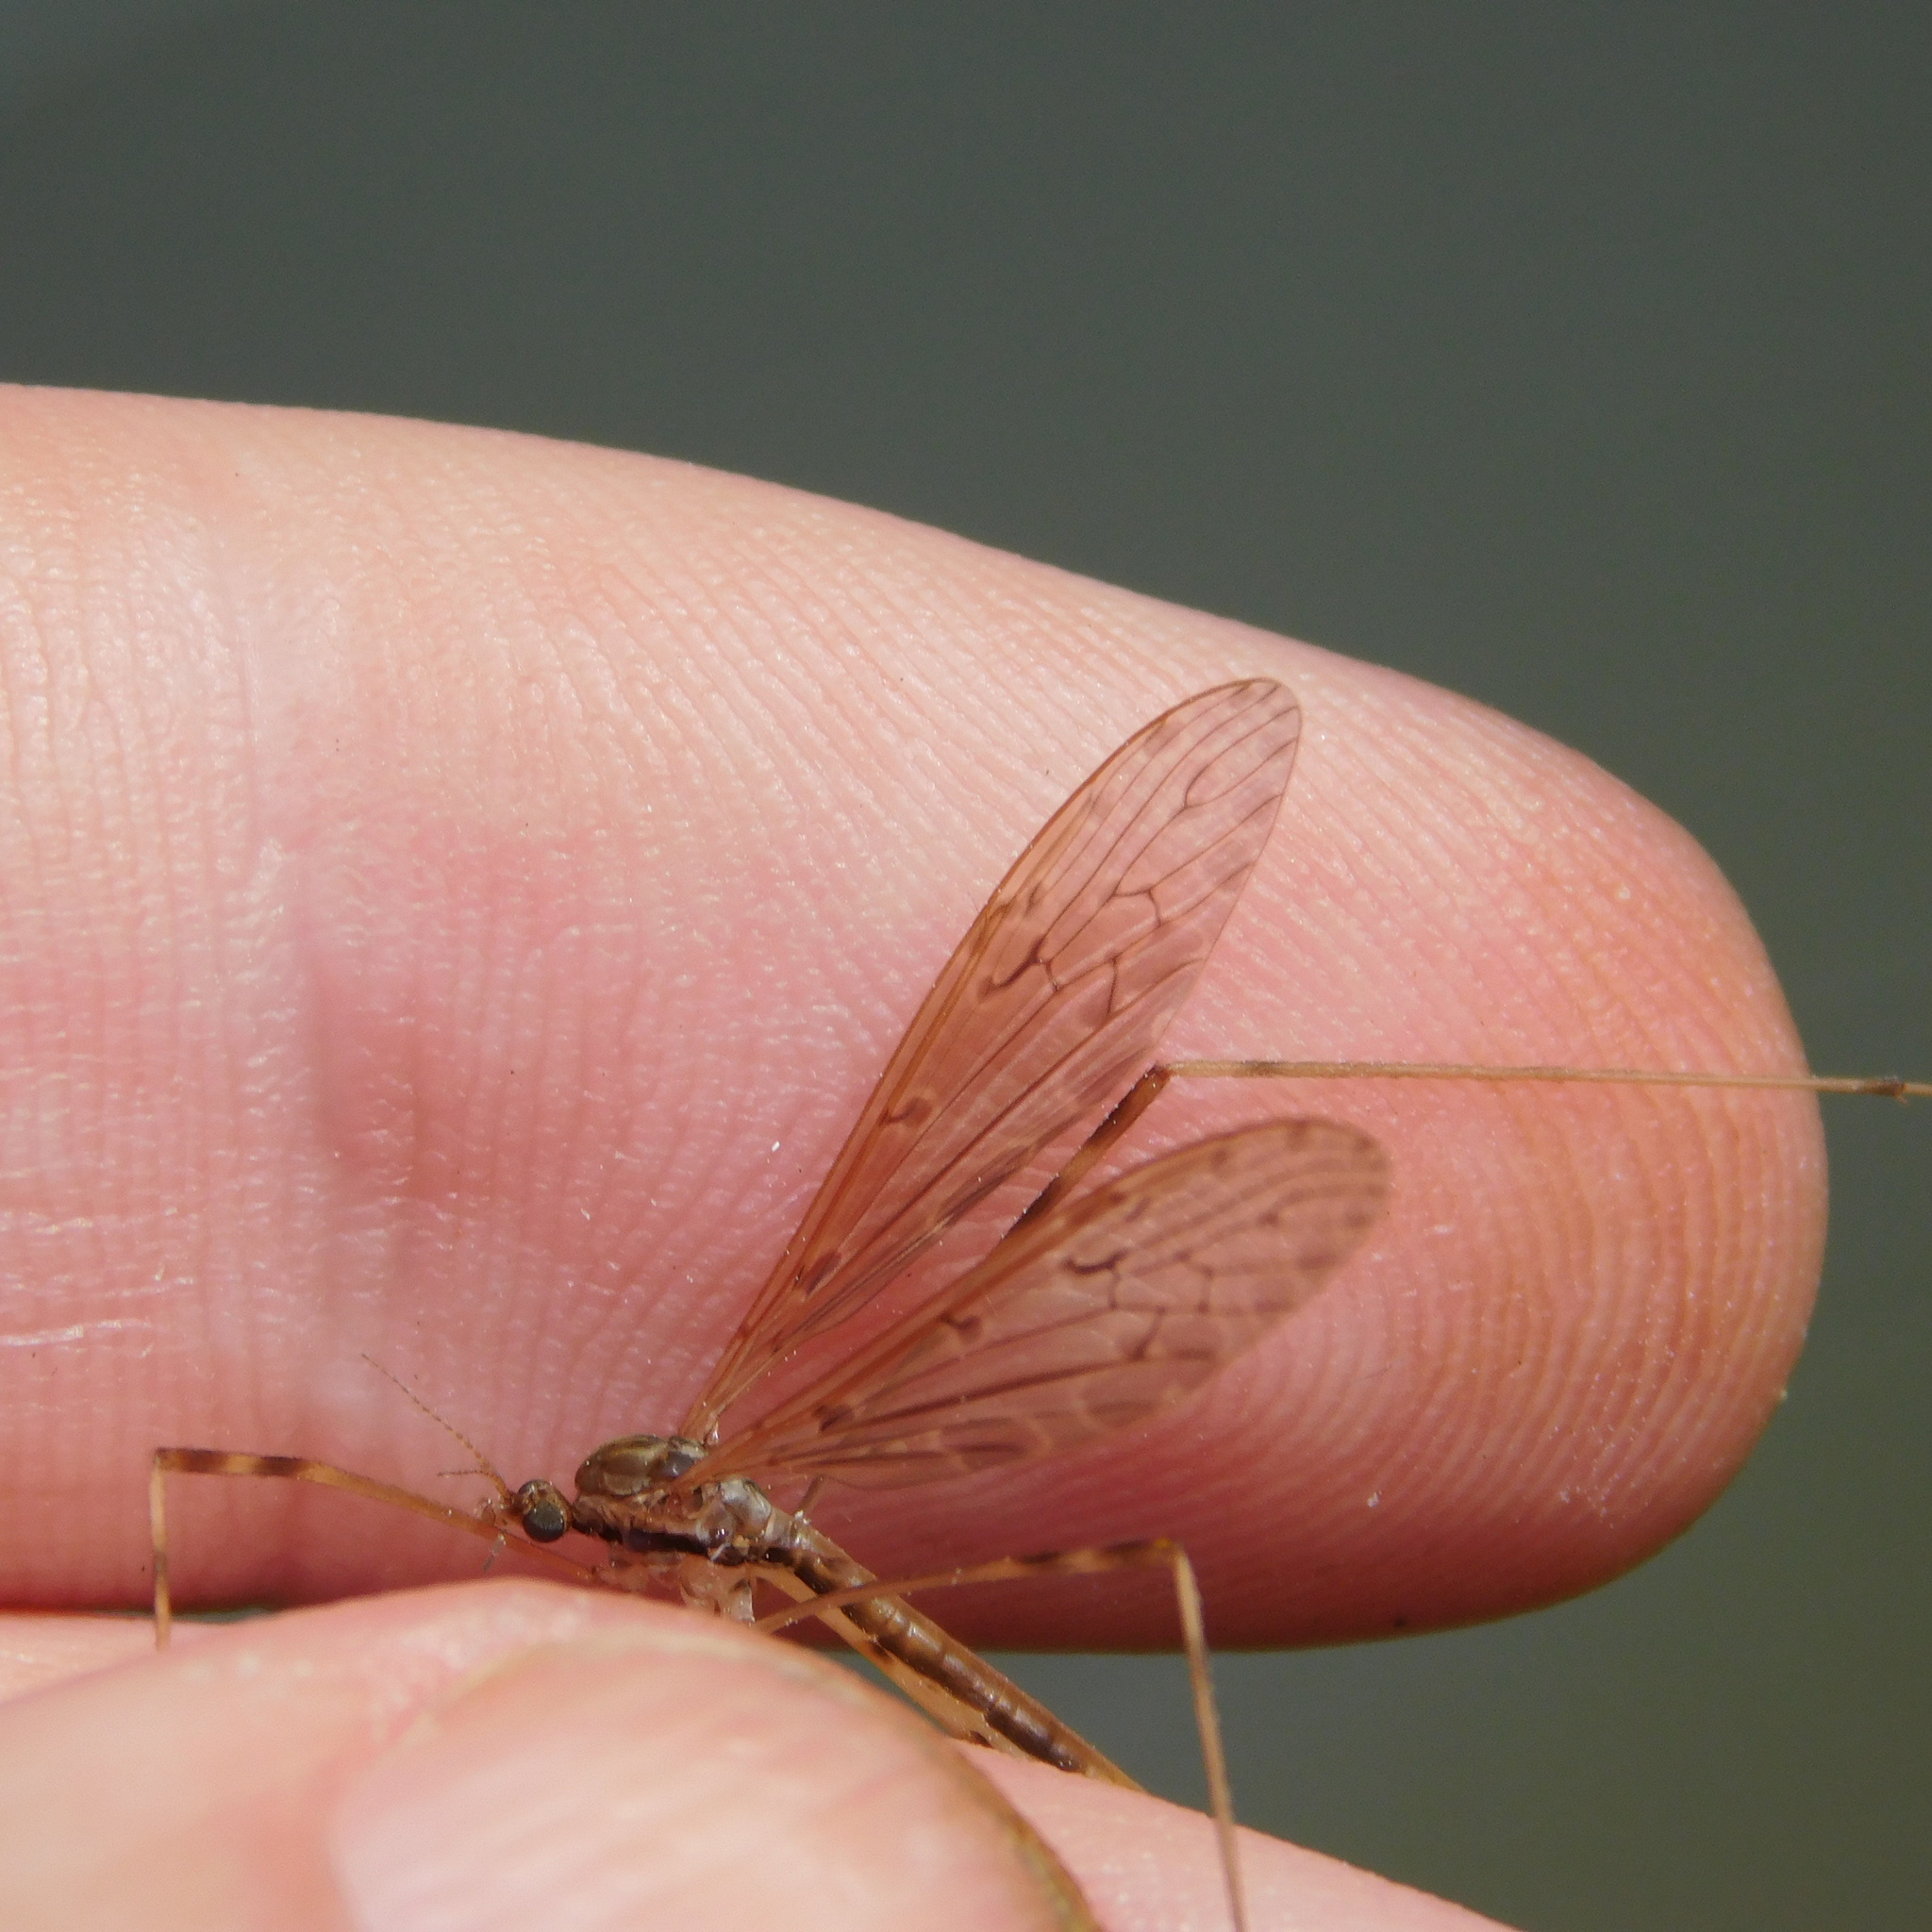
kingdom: Animalia
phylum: Arthropoda
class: Insecta
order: Diptera
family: Limoniidae
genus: Austrolimnophila
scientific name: Austrolimnophila crassipes
